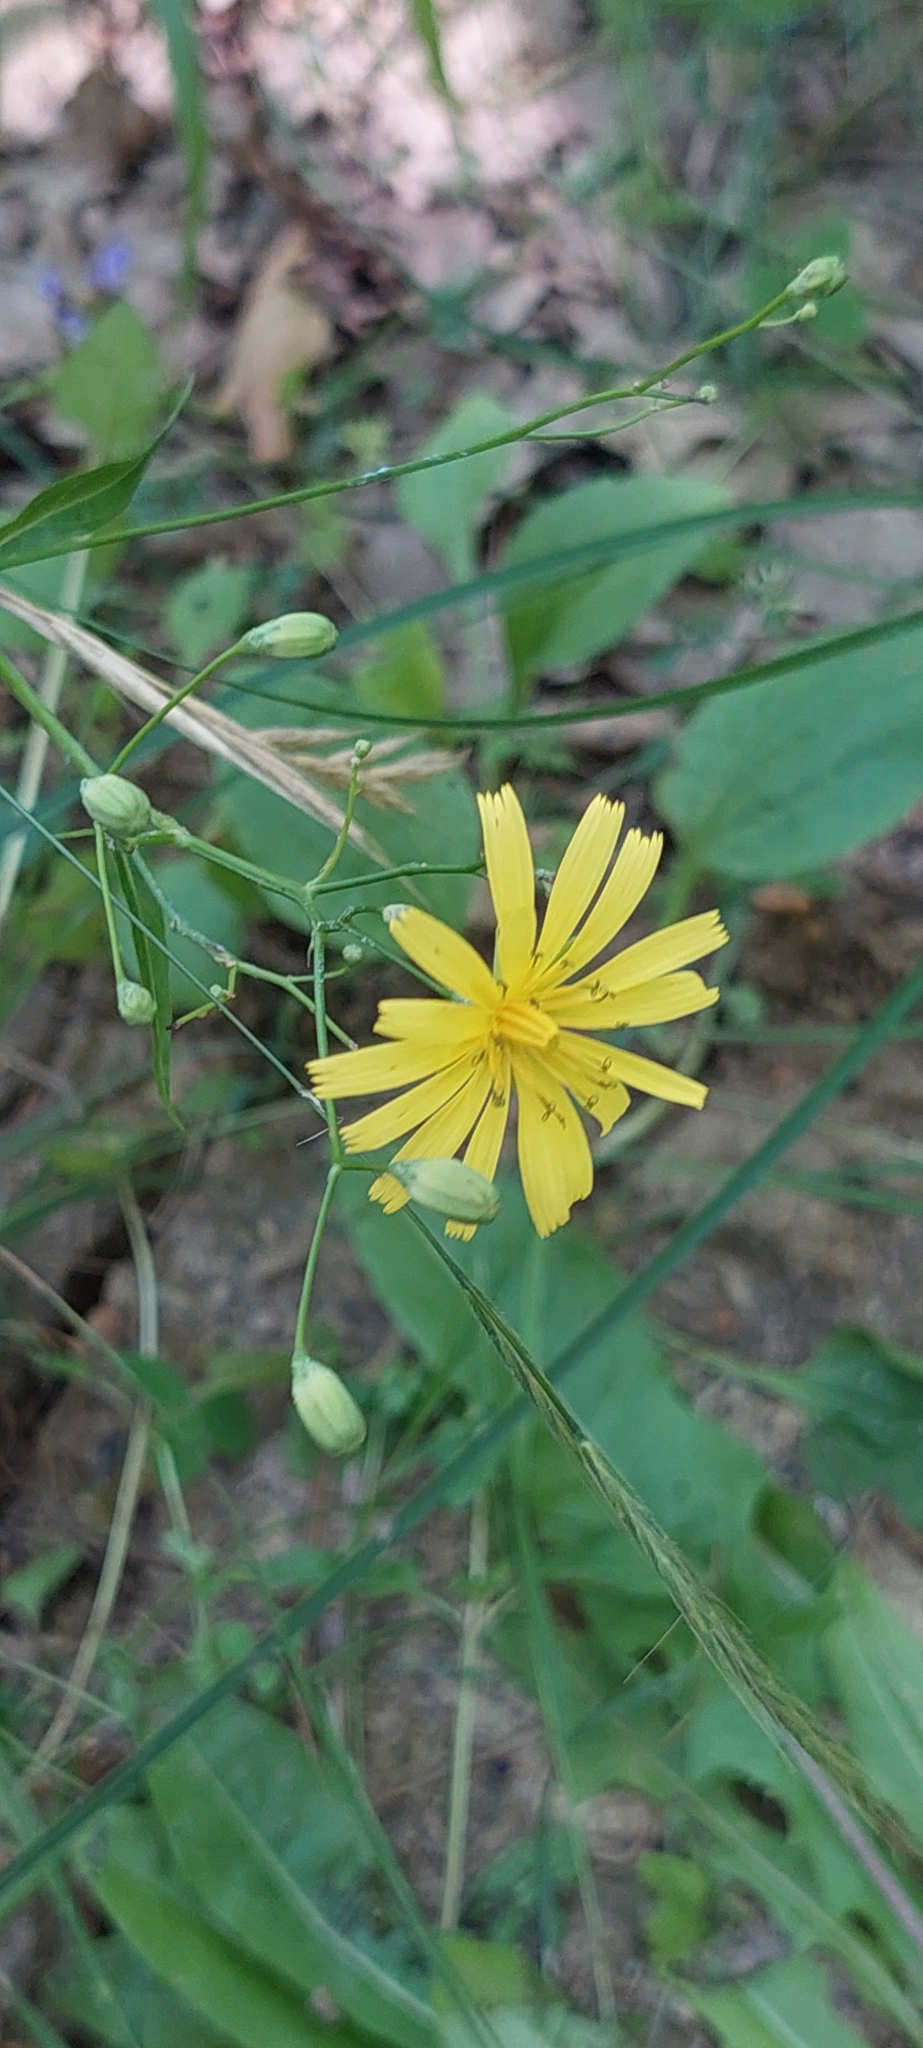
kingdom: Plantae
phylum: Tracheophyta
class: Magnoliopsida
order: Asterales
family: Asteraceae
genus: Lapsana
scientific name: Lapsana communis
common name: Nipplewort
